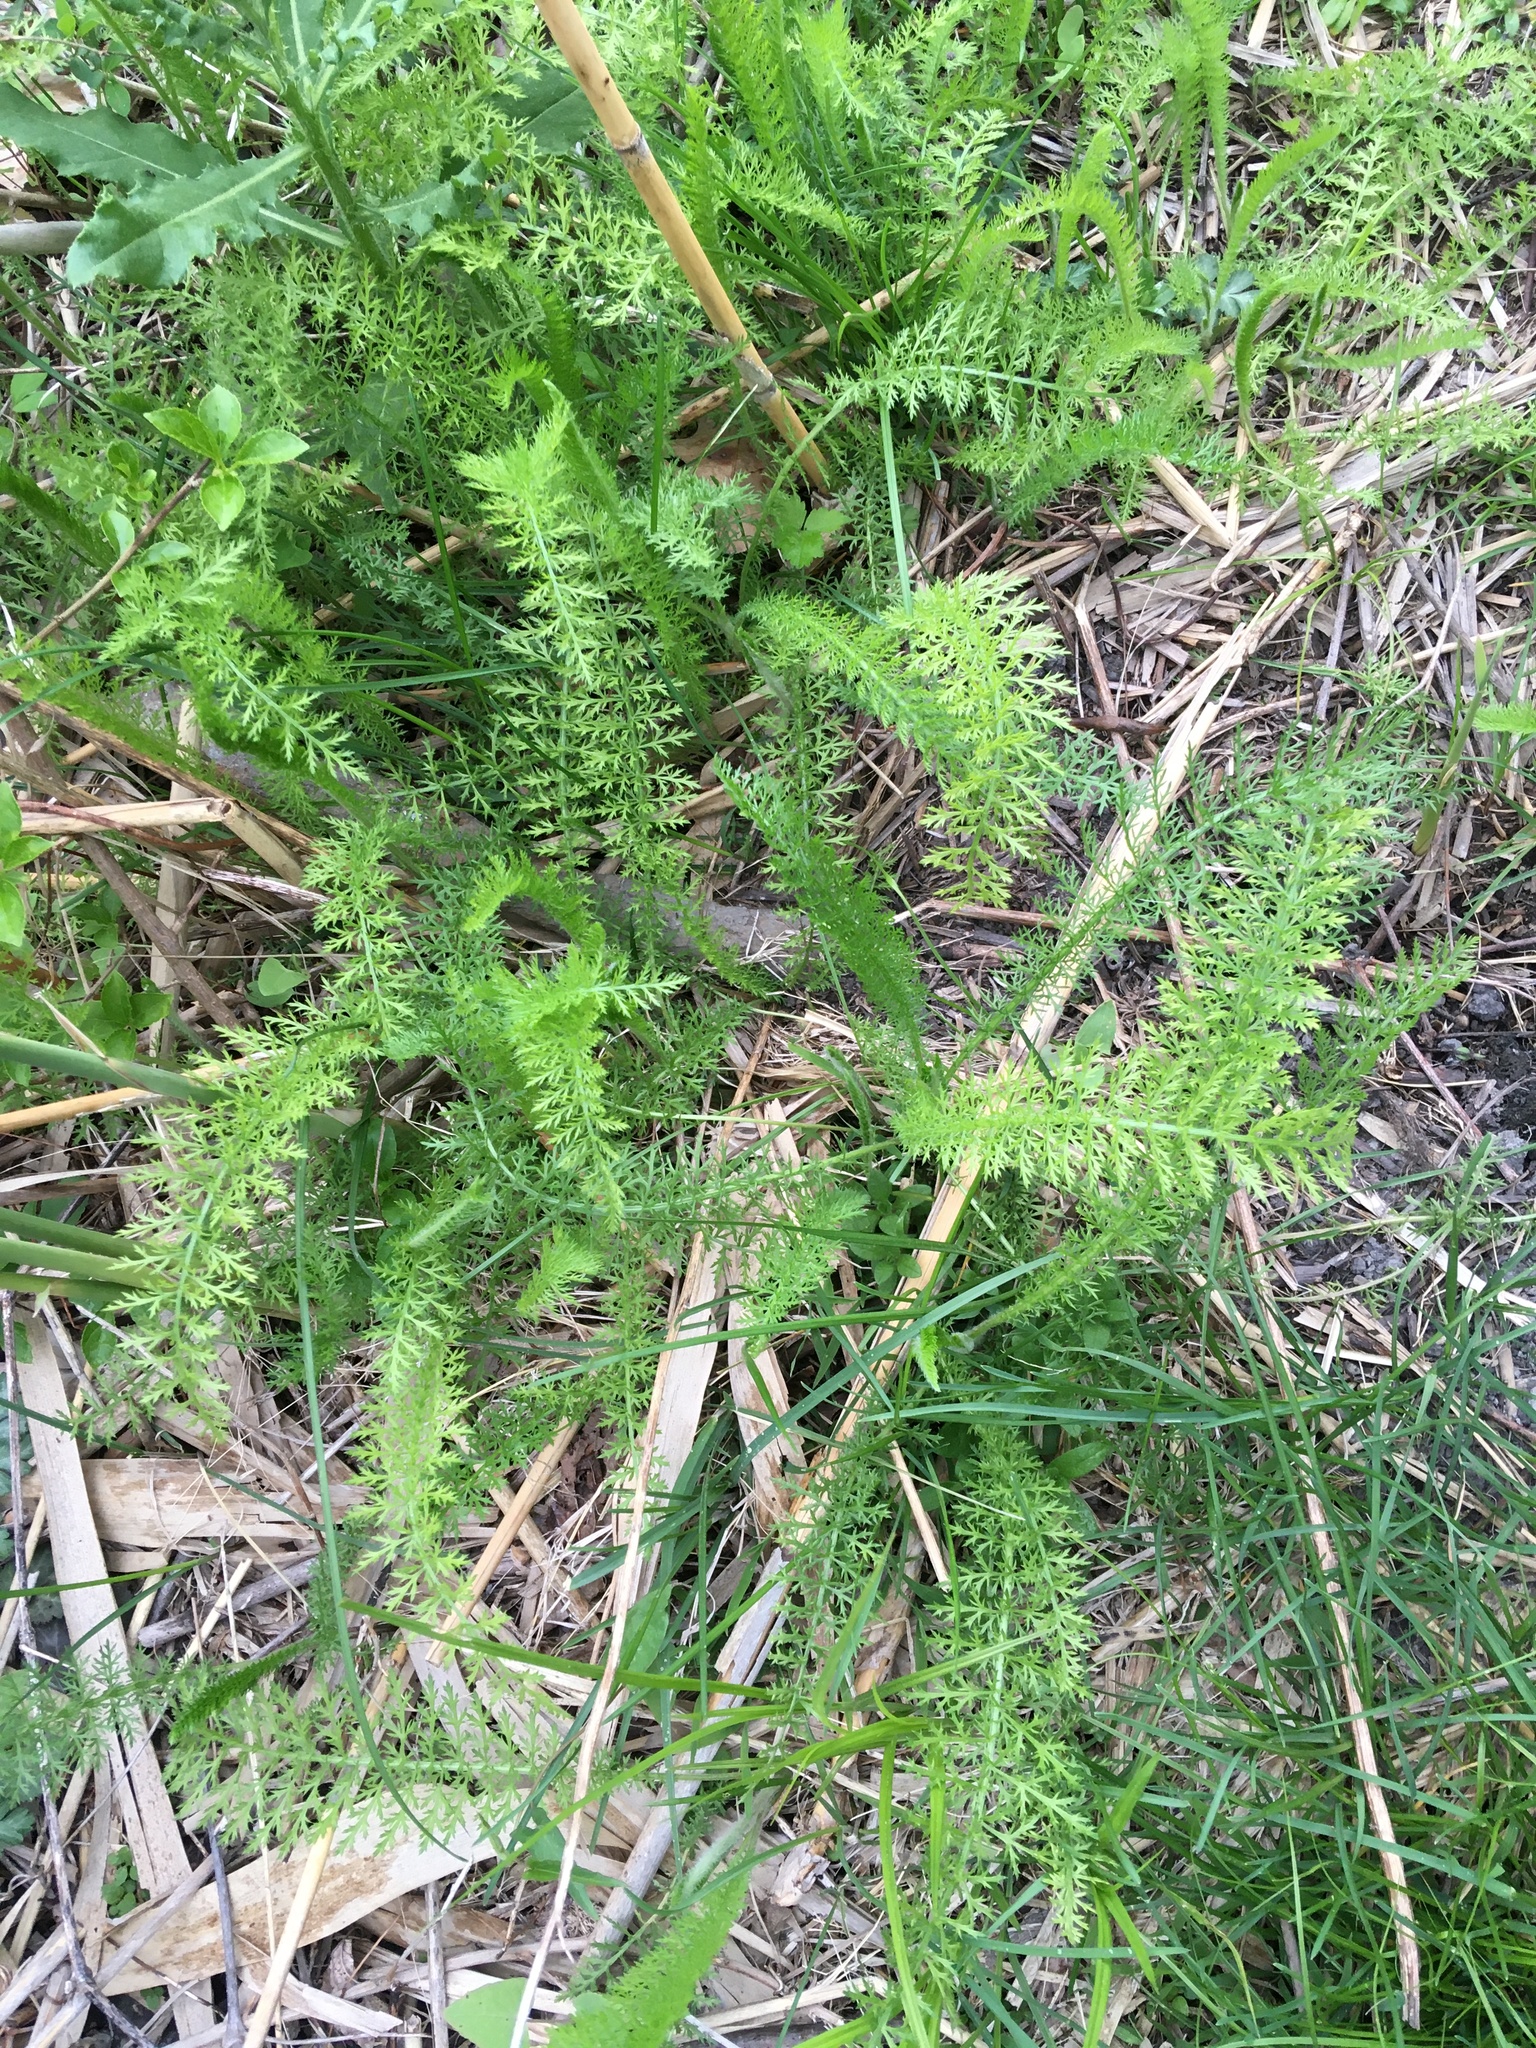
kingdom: Plantae
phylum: Tracheophyta
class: Magnoliopsida
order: Asterales
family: Asteraceae
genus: Achillea
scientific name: Achillea millefolium
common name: Yarrow
